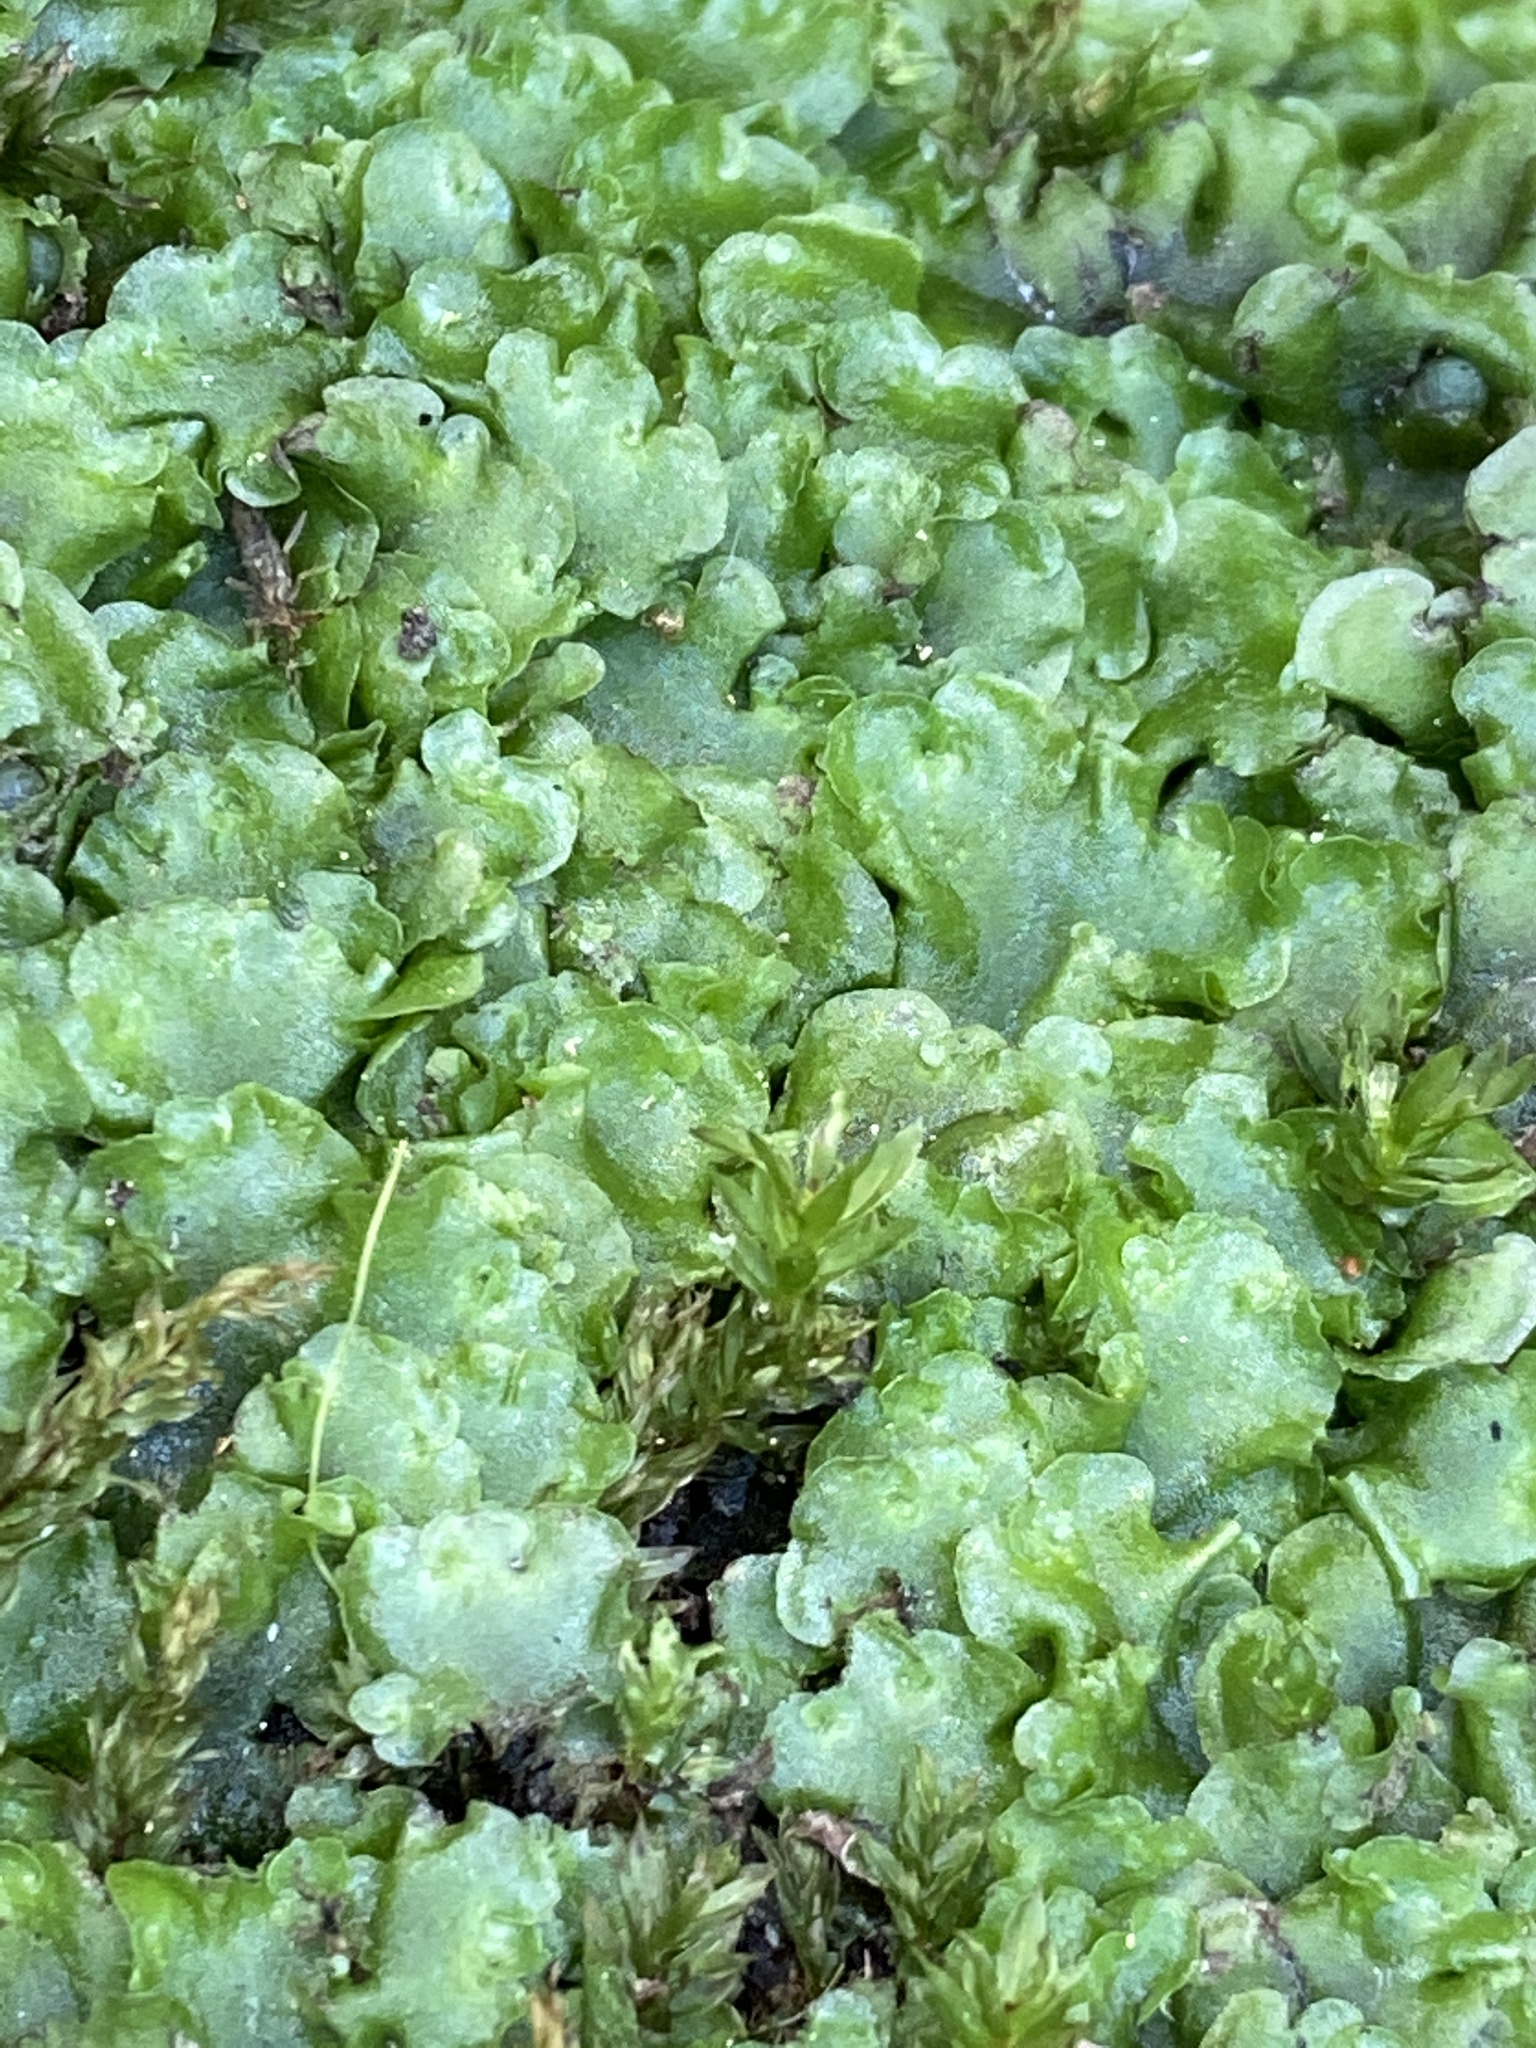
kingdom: Plantae
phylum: Marchantiophyta
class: Jungermanniopsida
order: Pelliales
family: Pelliaceae
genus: Pellia
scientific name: Pellia epiphylla
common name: Common pellia
